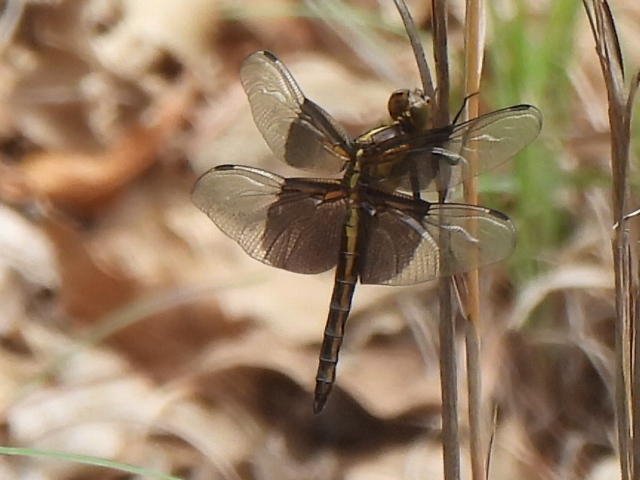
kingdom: Animalia
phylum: Arthropoda
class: Insecta
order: Odonata
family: Libellulidae
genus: Libellula
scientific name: Libellula luctuosa
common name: Widow skimmer
